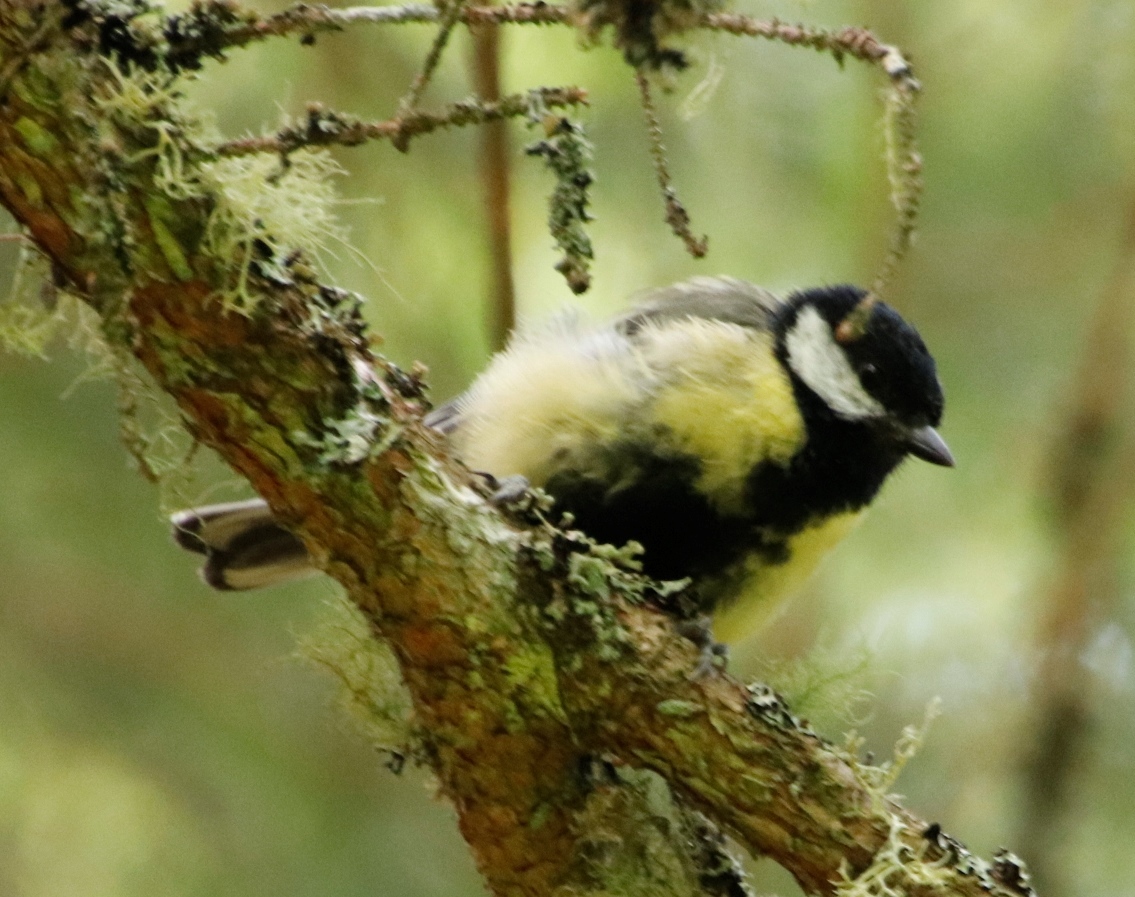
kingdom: Animalia
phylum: Chordata
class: Aves
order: Passeriformes
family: Paridae
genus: Parus
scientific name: Parus major
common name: Great tit
